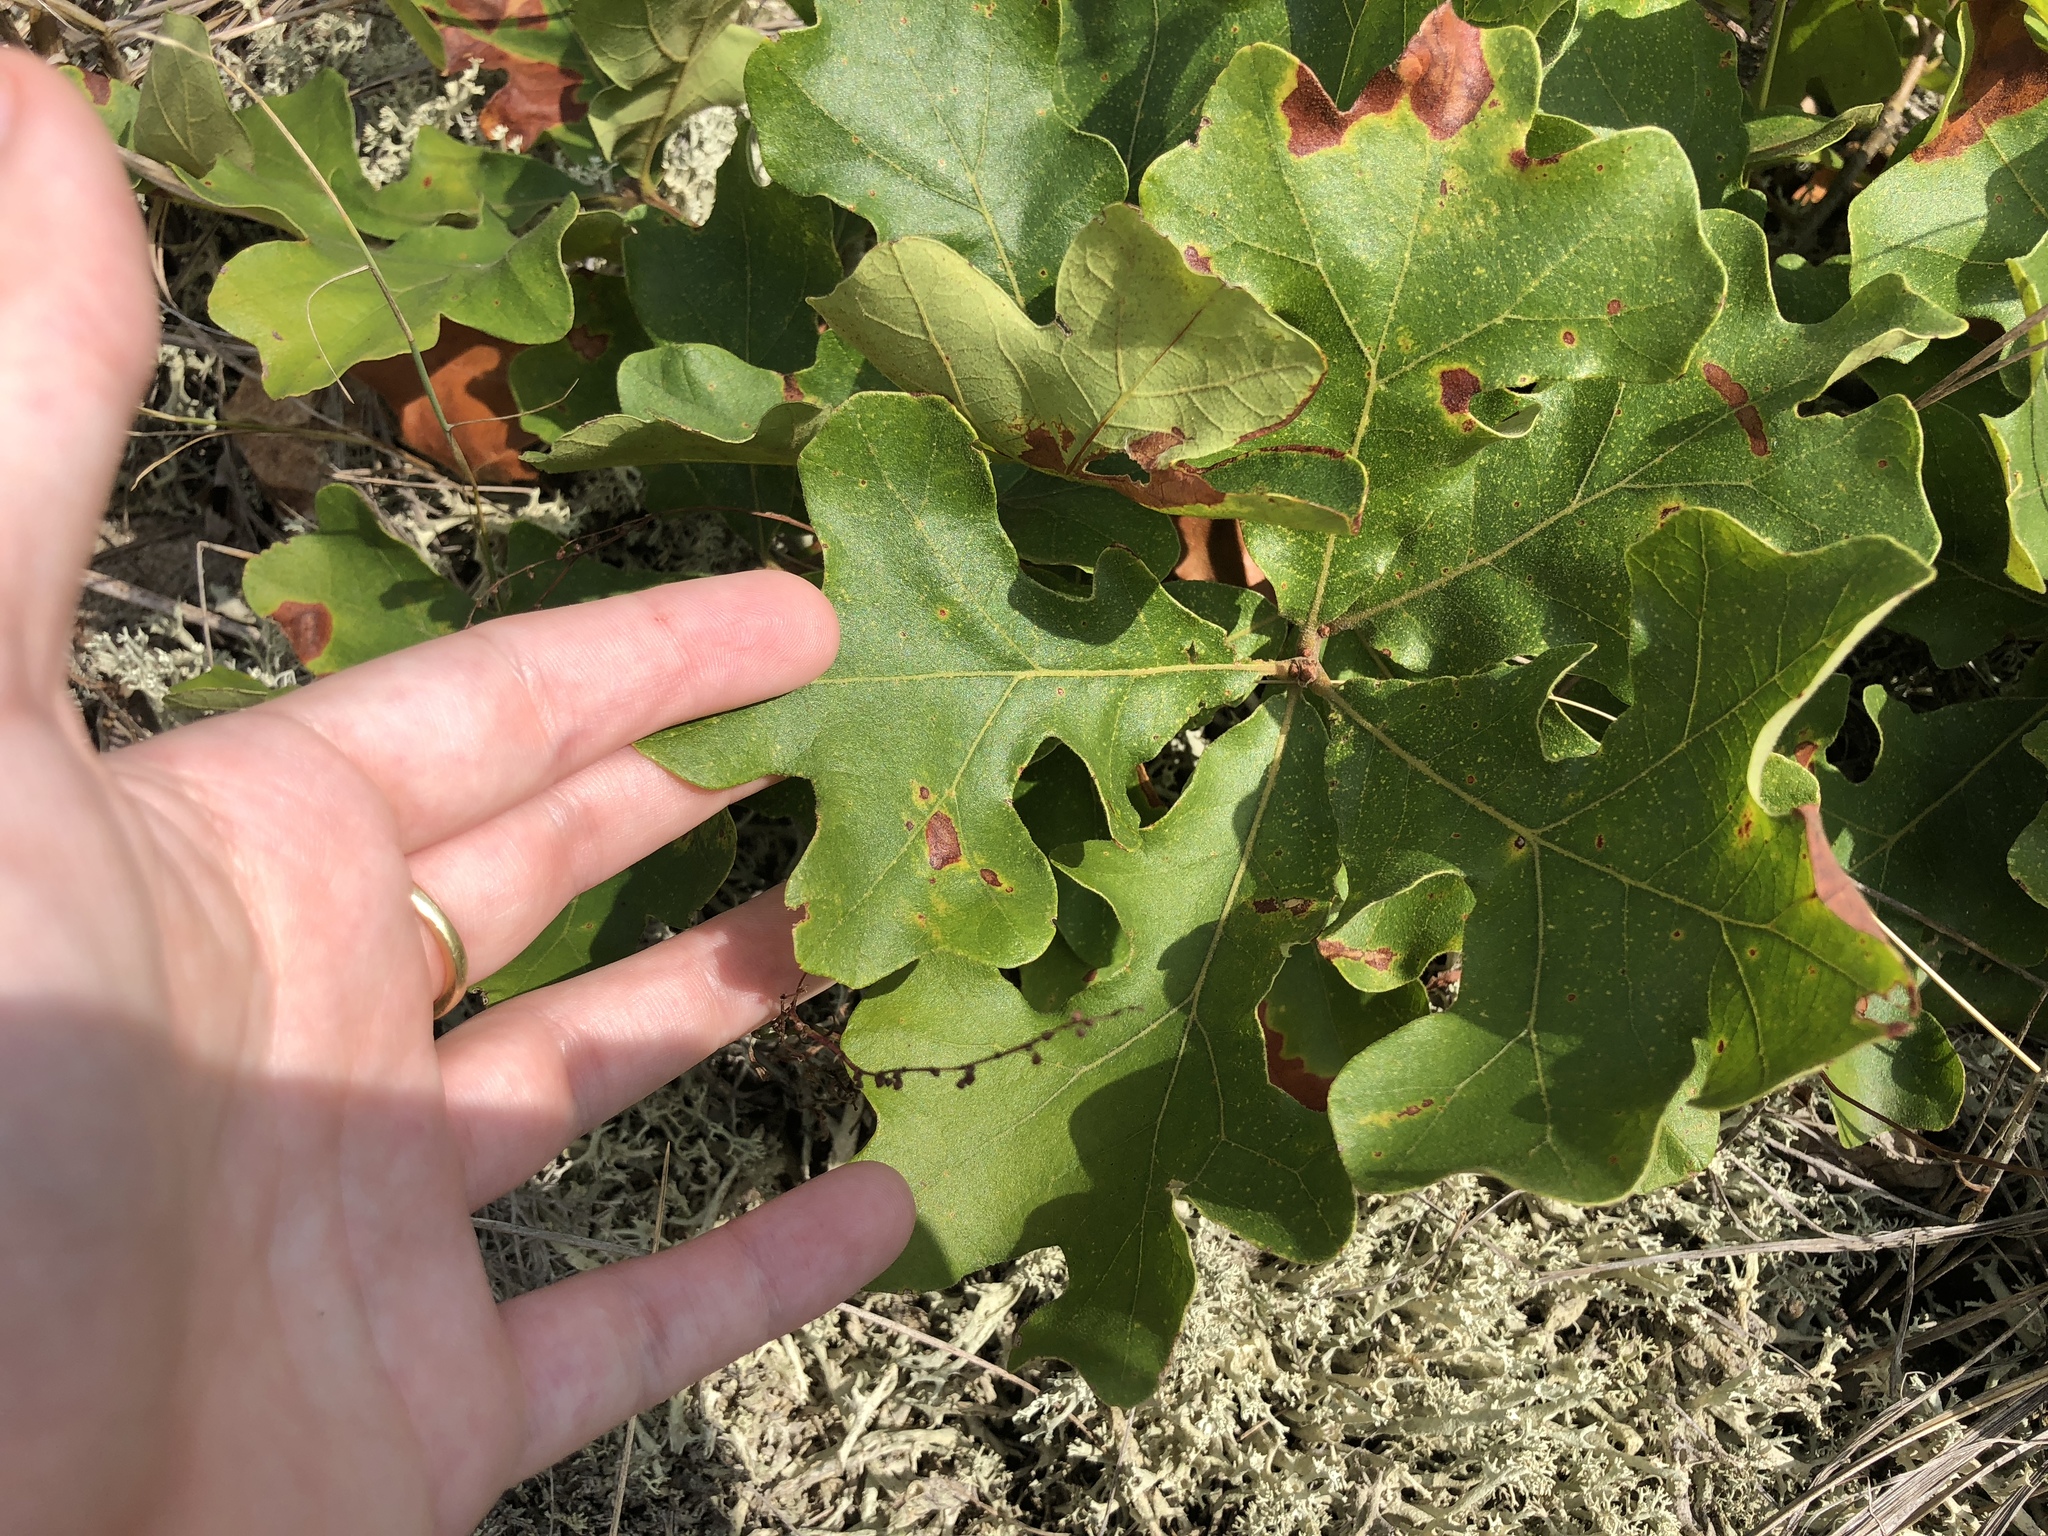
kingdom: Plantae
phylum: Tracheophyta
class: Magnoliopsida
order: Fagales
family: Fagaceae
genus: Quercus
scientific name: Quercus stellata
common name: Post oak
